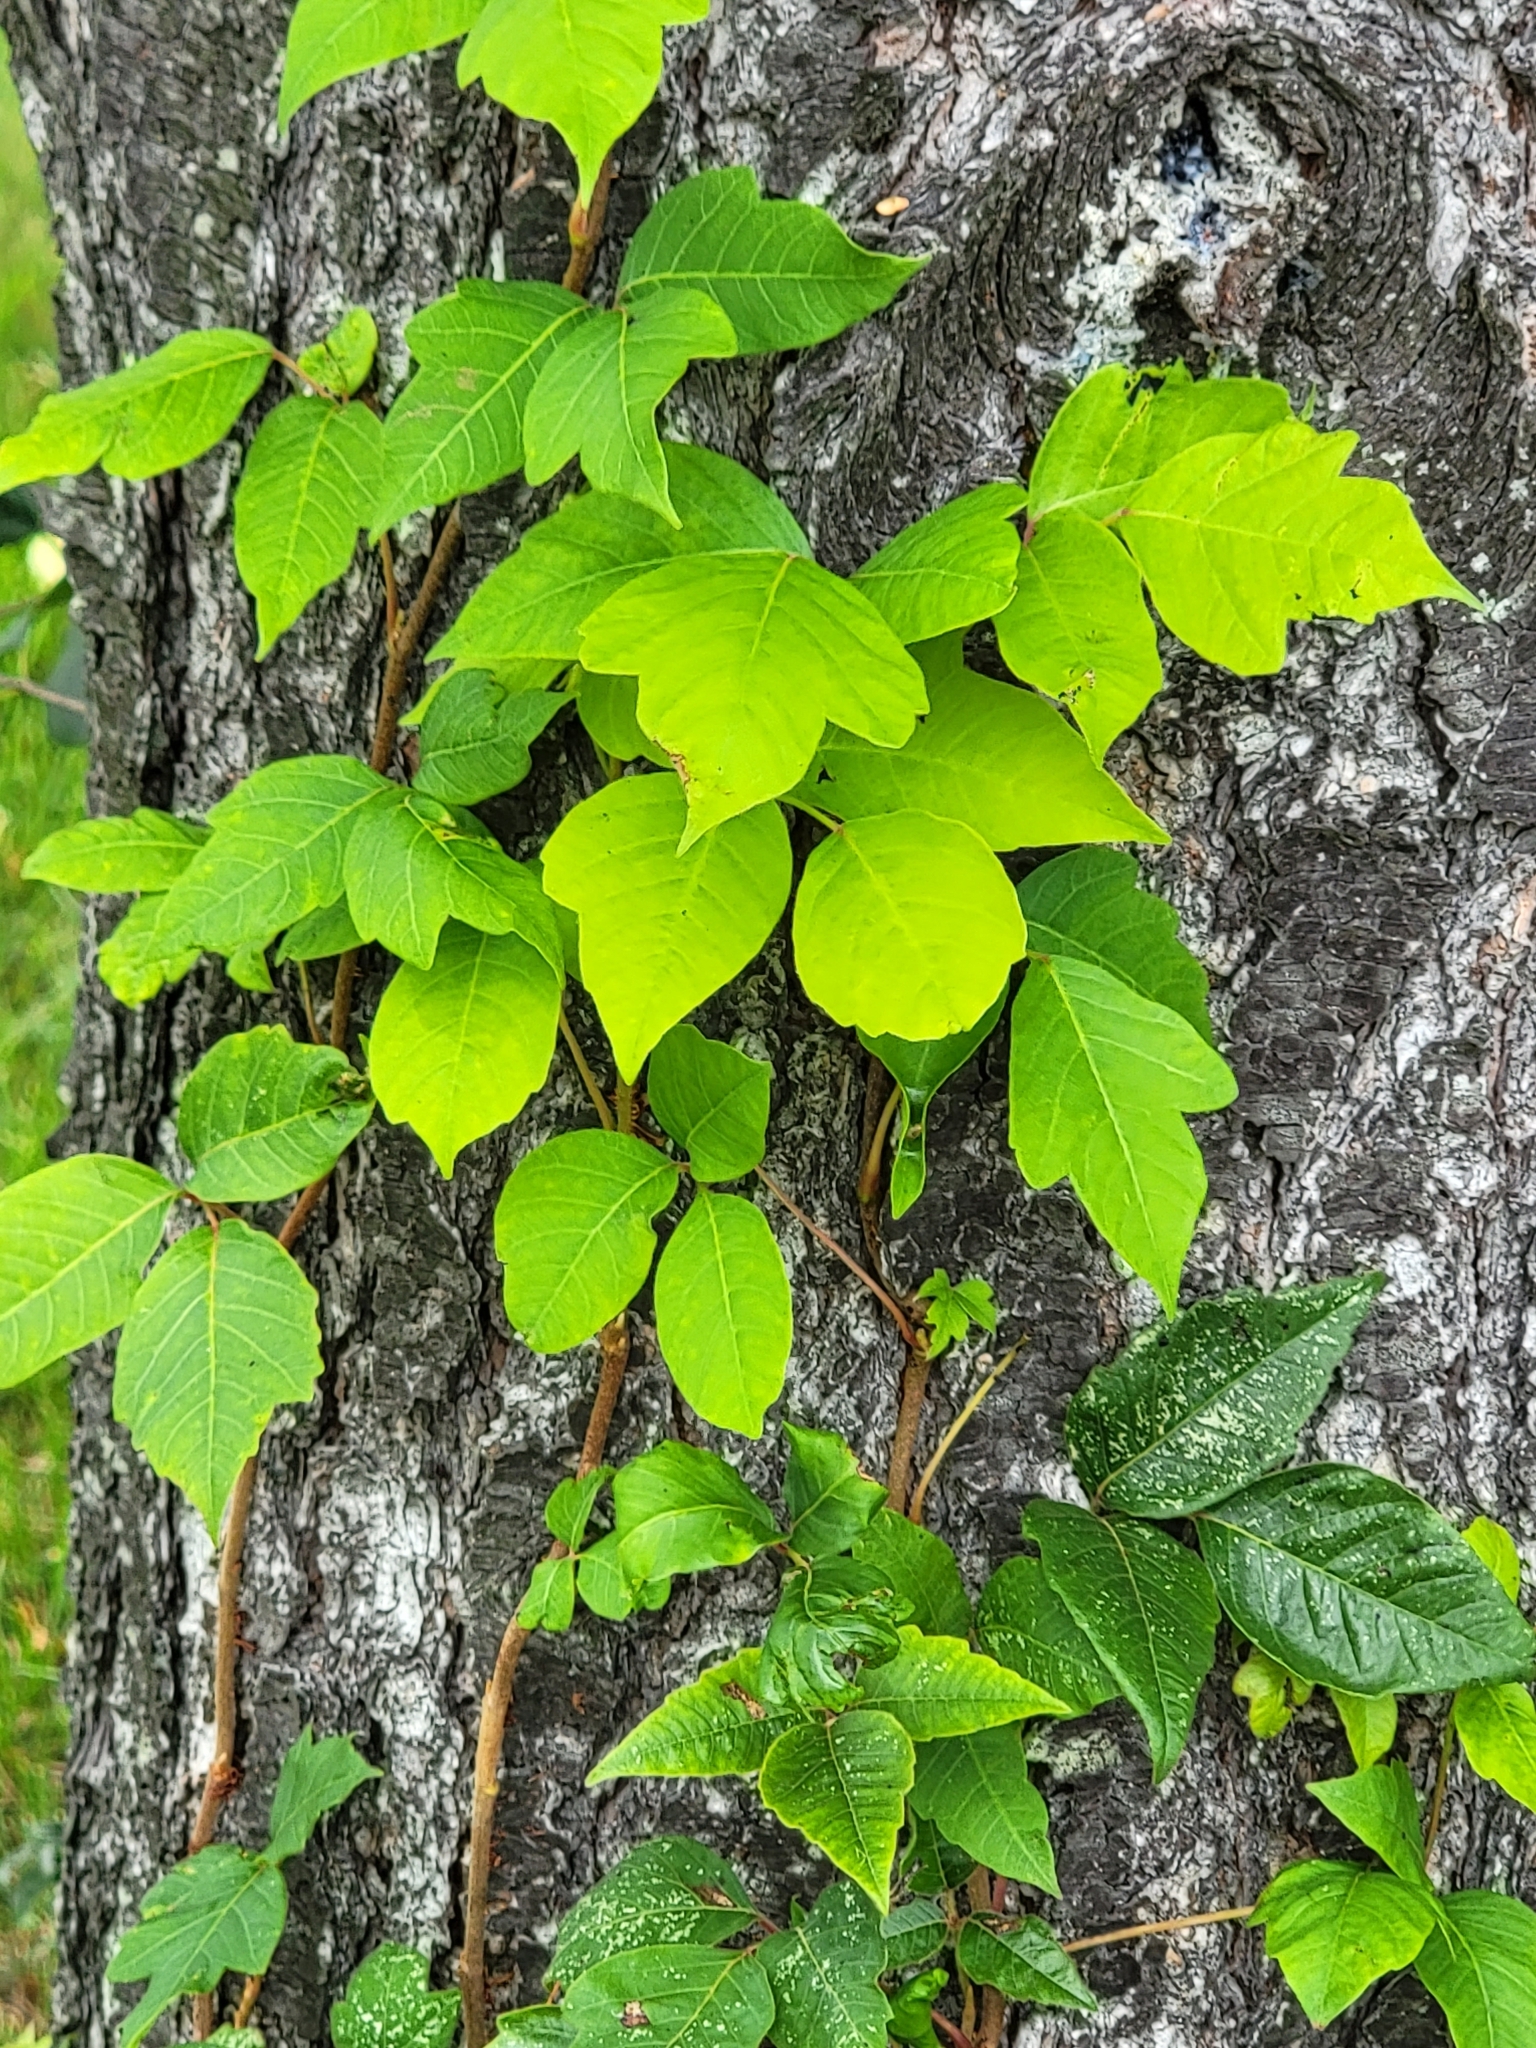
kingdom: Plantae
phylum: Tracheophyta
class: Magnoliopsida
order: Sapindales
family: Anacardiaceae
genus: Toxicodendron
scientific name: Toxicodendron radicans
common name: Poison ivy
